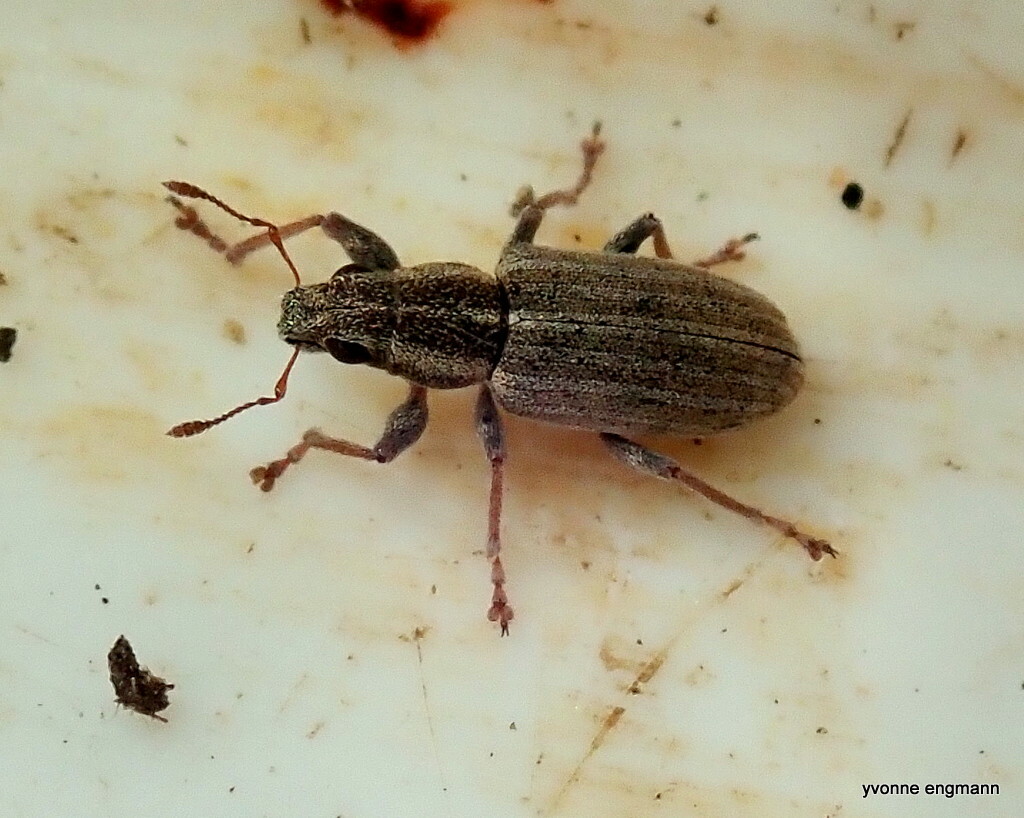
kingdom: Animalia
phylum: Arthropoda
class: Insecta
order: Coleoptera
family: Curculionidae
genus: Sitona
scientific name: Sitona lineatus
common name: Weevil
